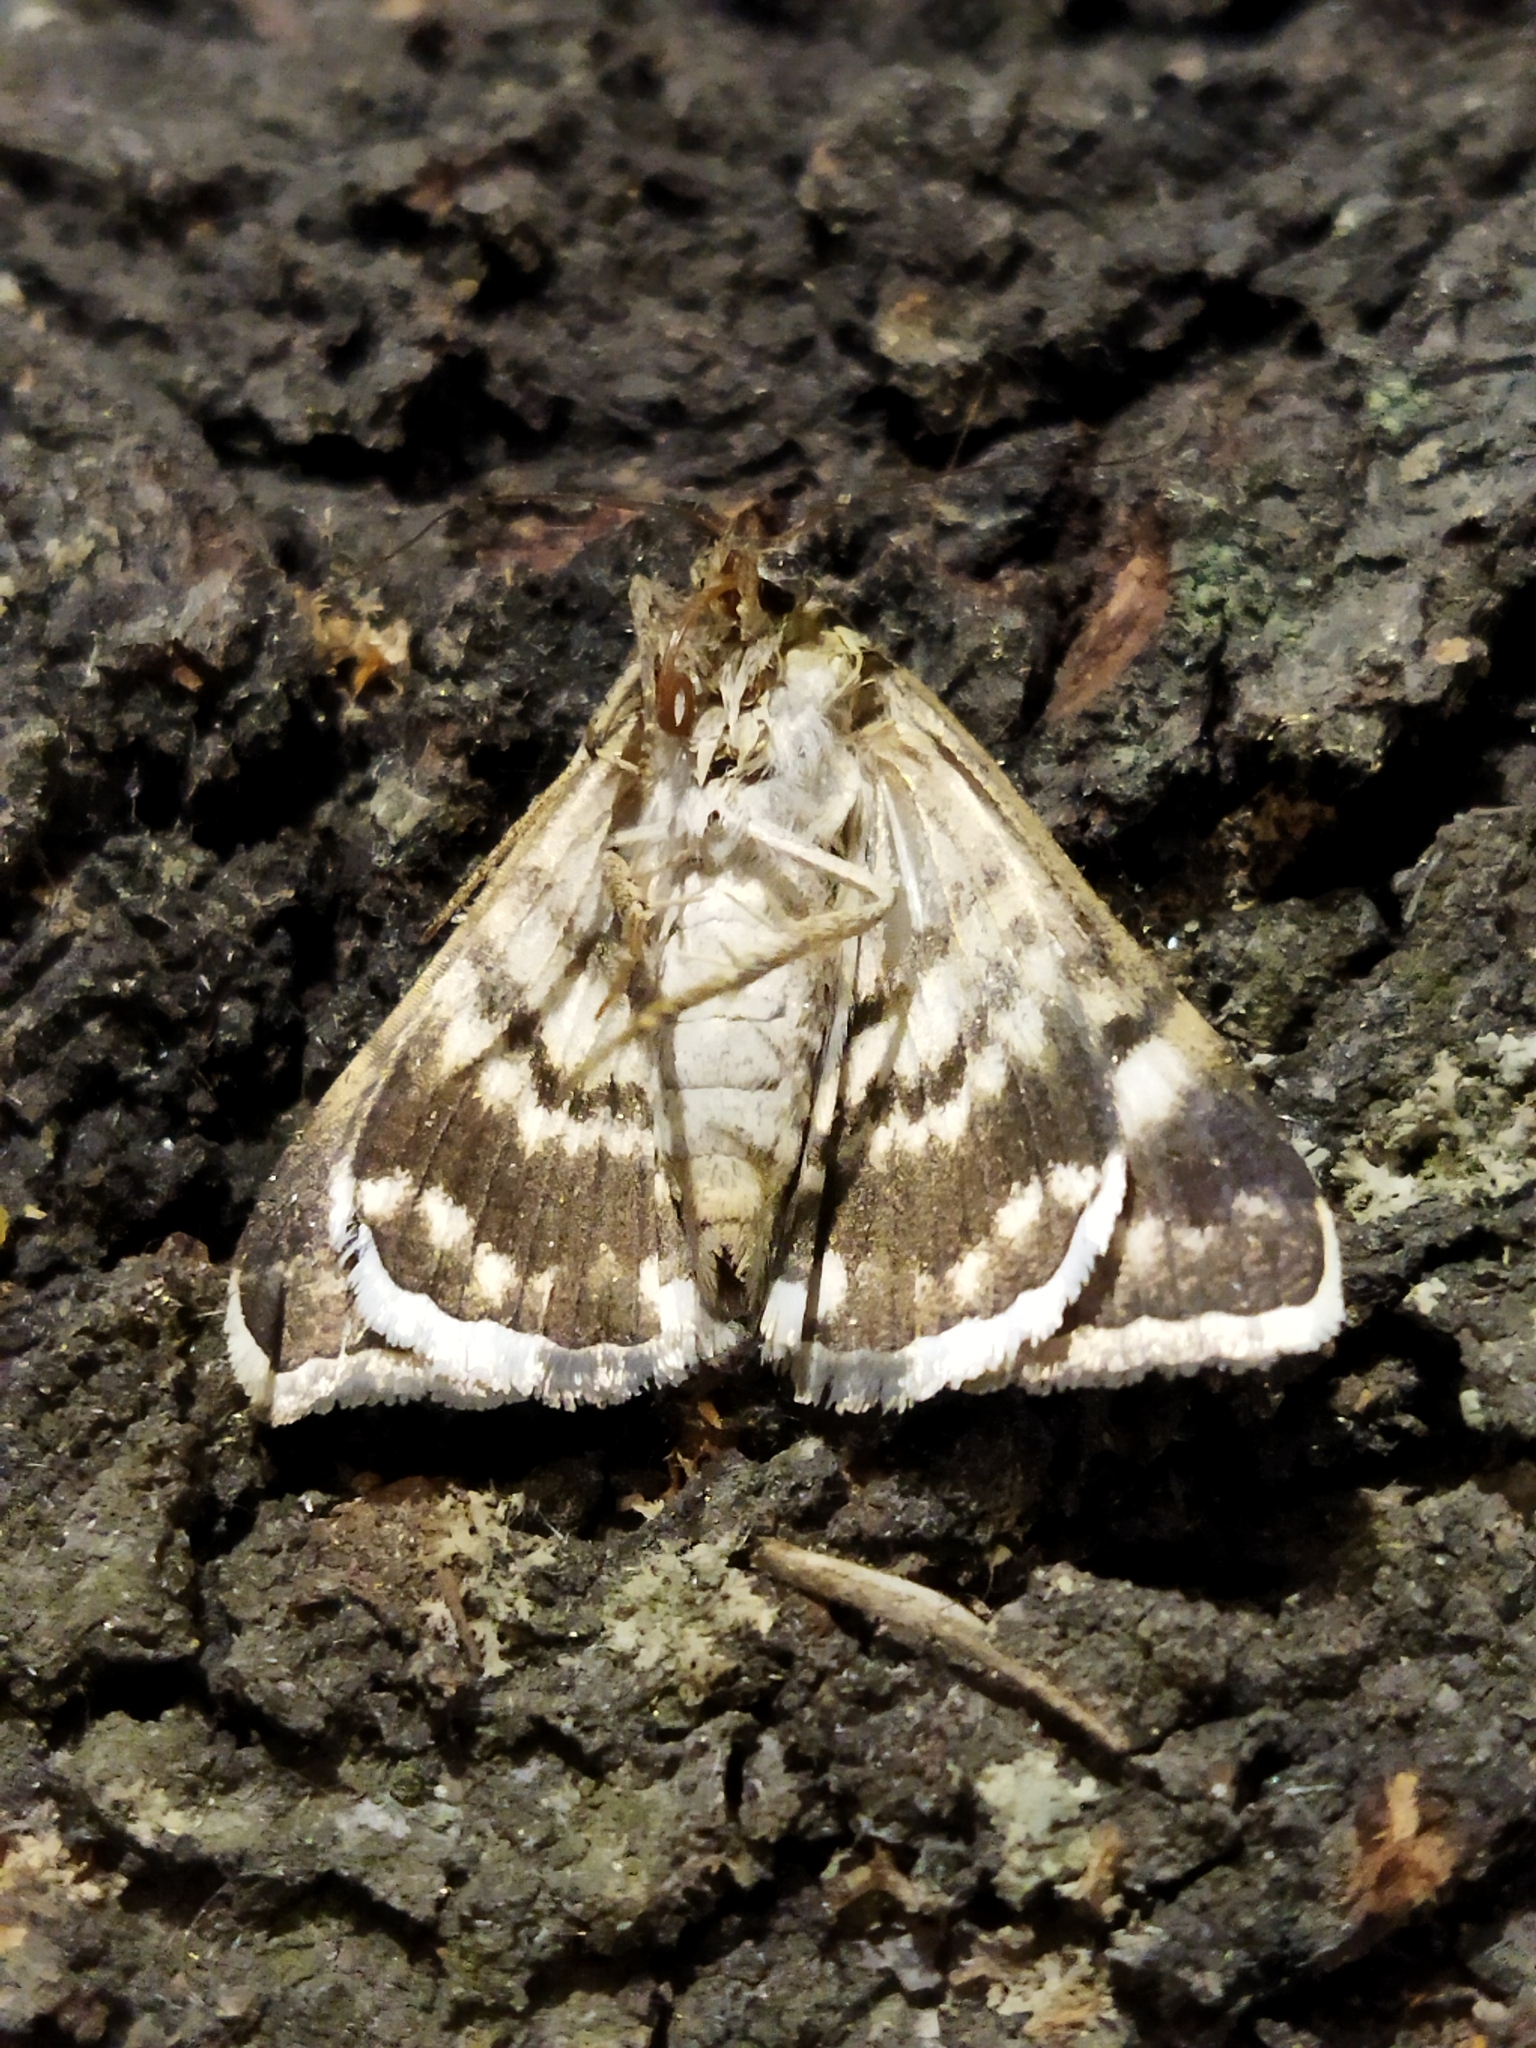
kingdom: Animalia
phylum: Arthropoda
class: Insecta
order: Lepidoptera
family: Erebidae
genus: Grammodes
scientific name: Grammodes stolida
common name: Geometrician
